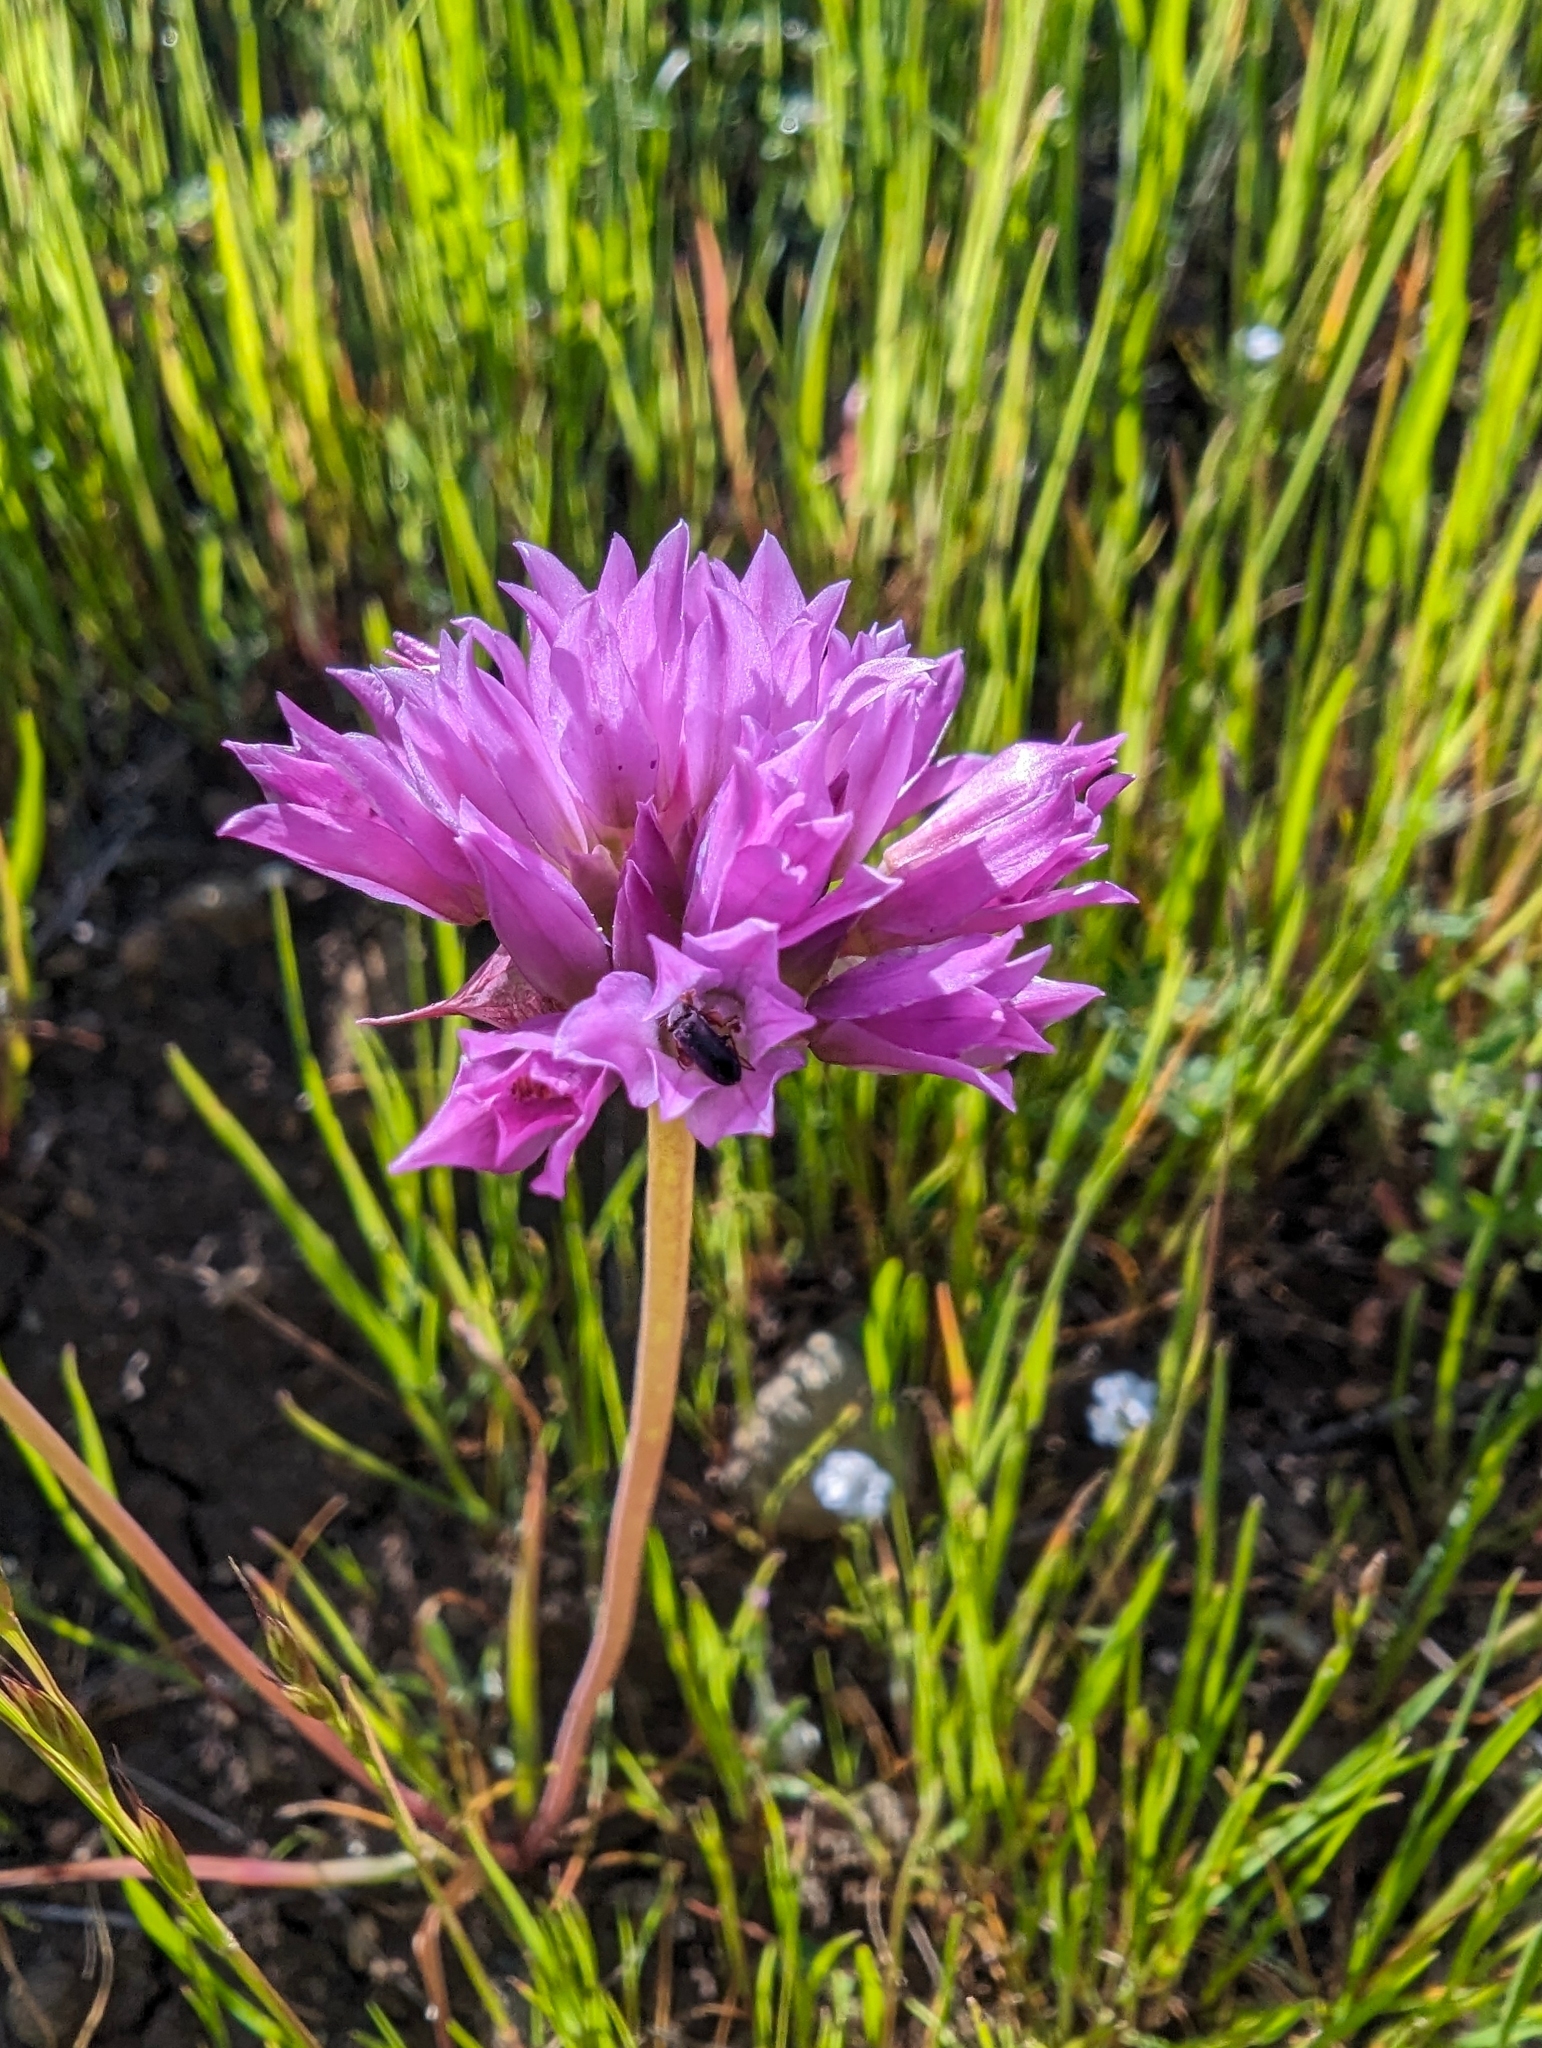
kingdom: Plantae
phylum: Tracheophyta
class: Liliopsida
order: Asparagales
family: Amaryllidaceae
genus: Allium
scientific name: Allium serra
